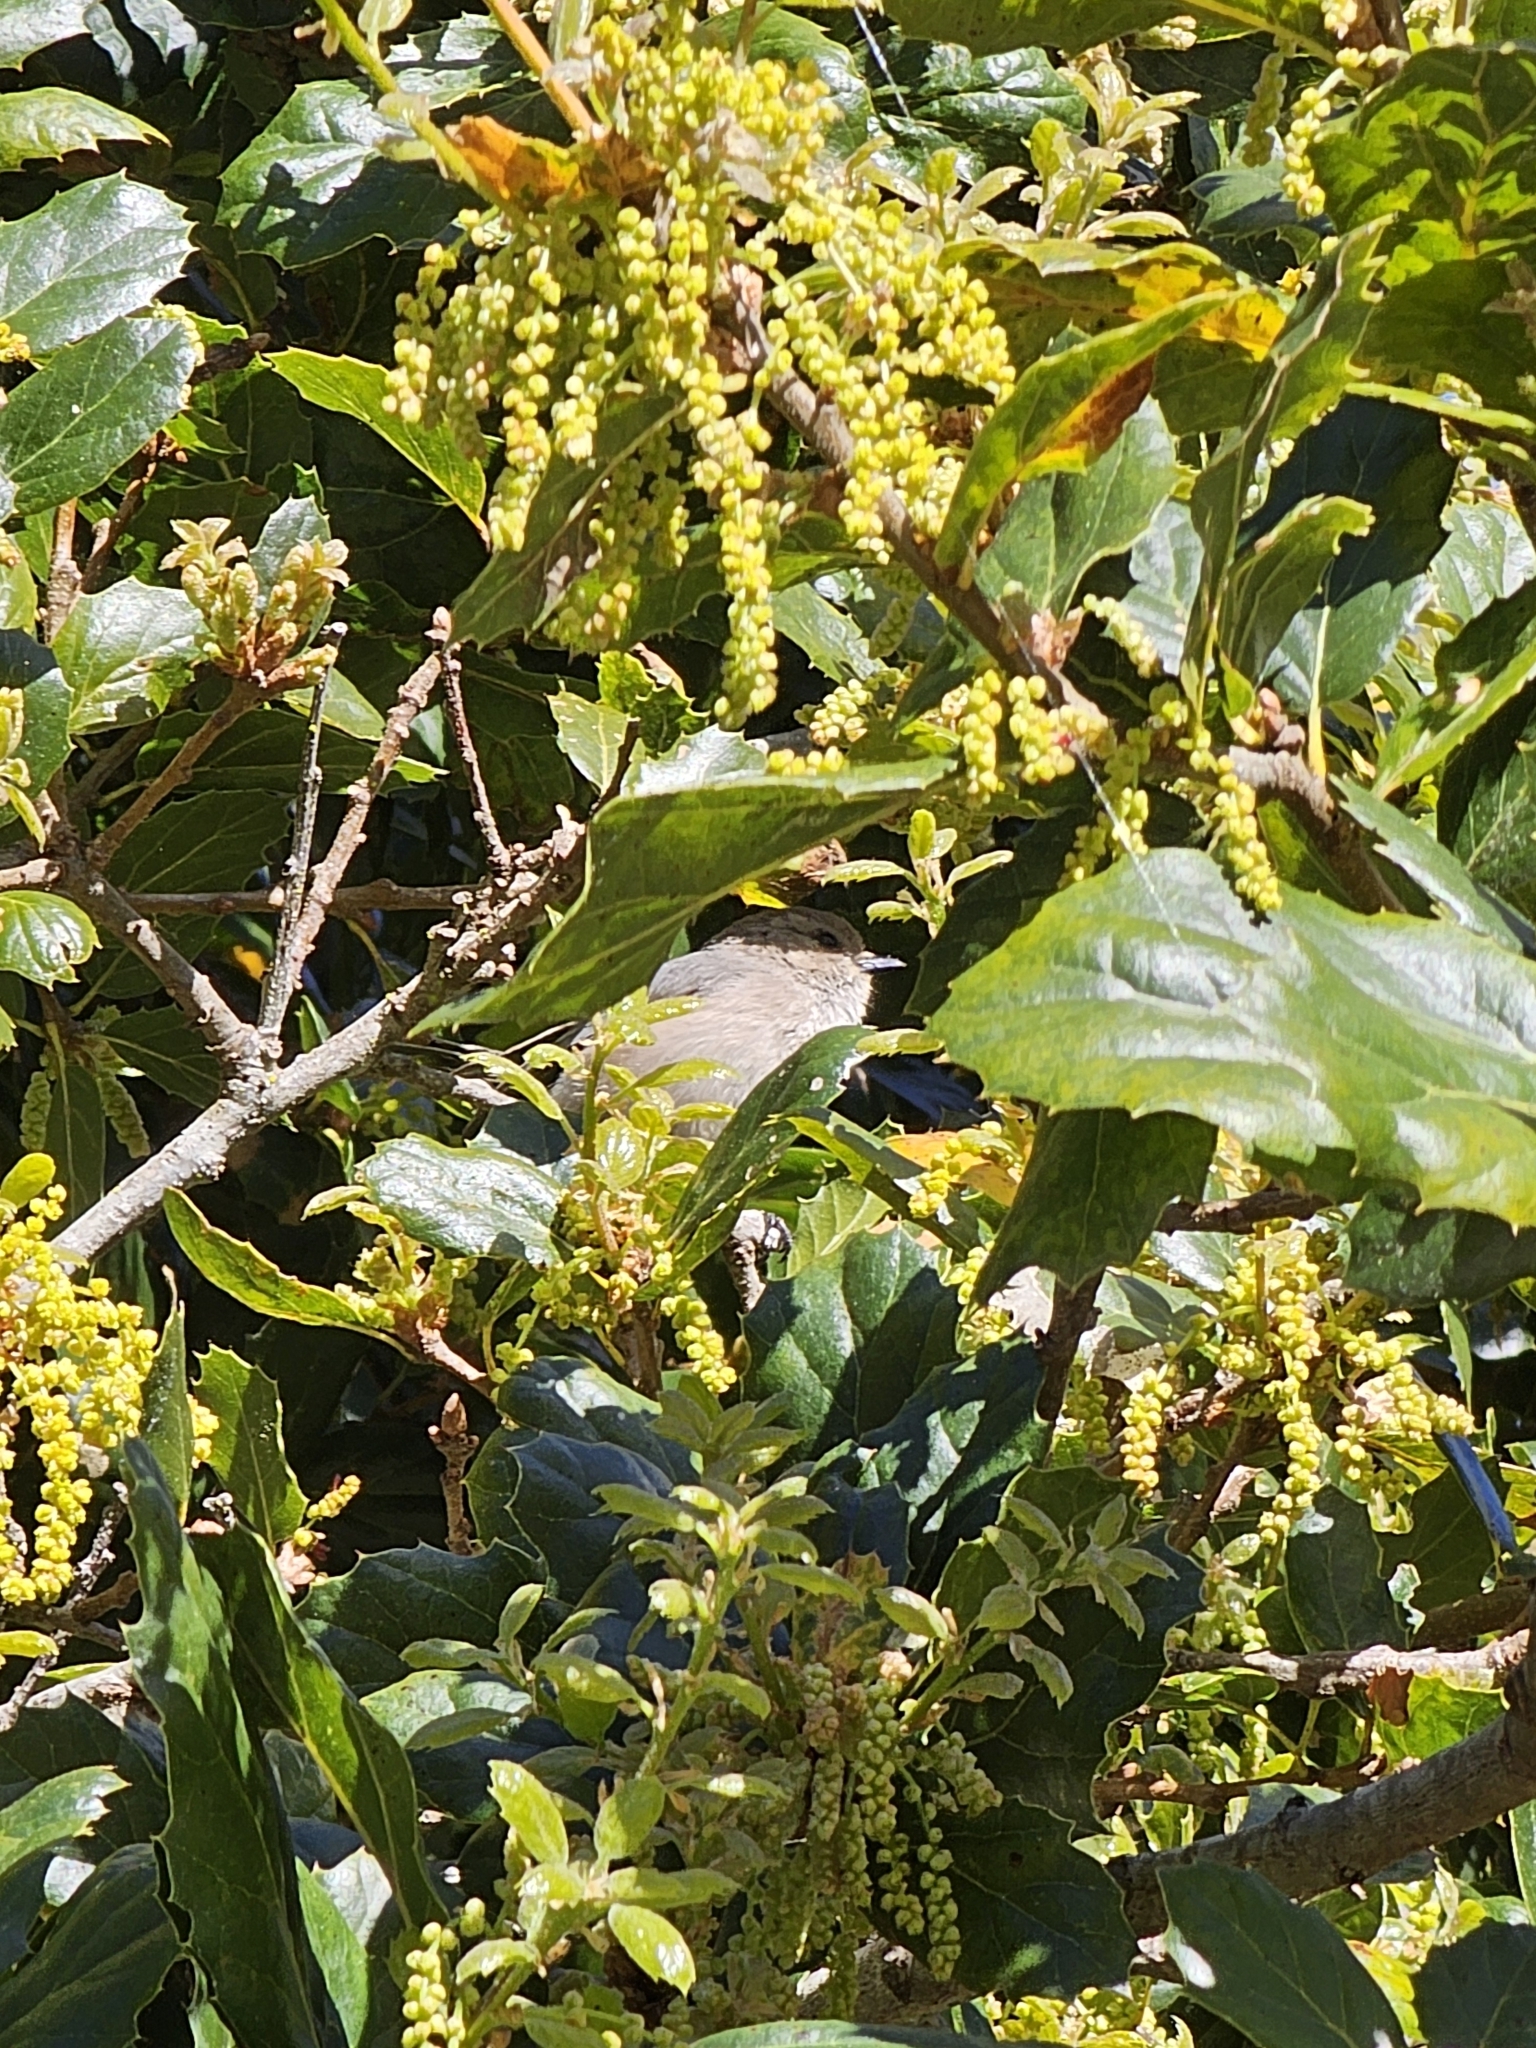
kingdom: Animalia
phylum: Chordata
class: Aves
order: Passeriformes
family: Aegithalidae
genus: Psaltriparus
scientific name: Psaltriparus minimus
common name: American bushtit
